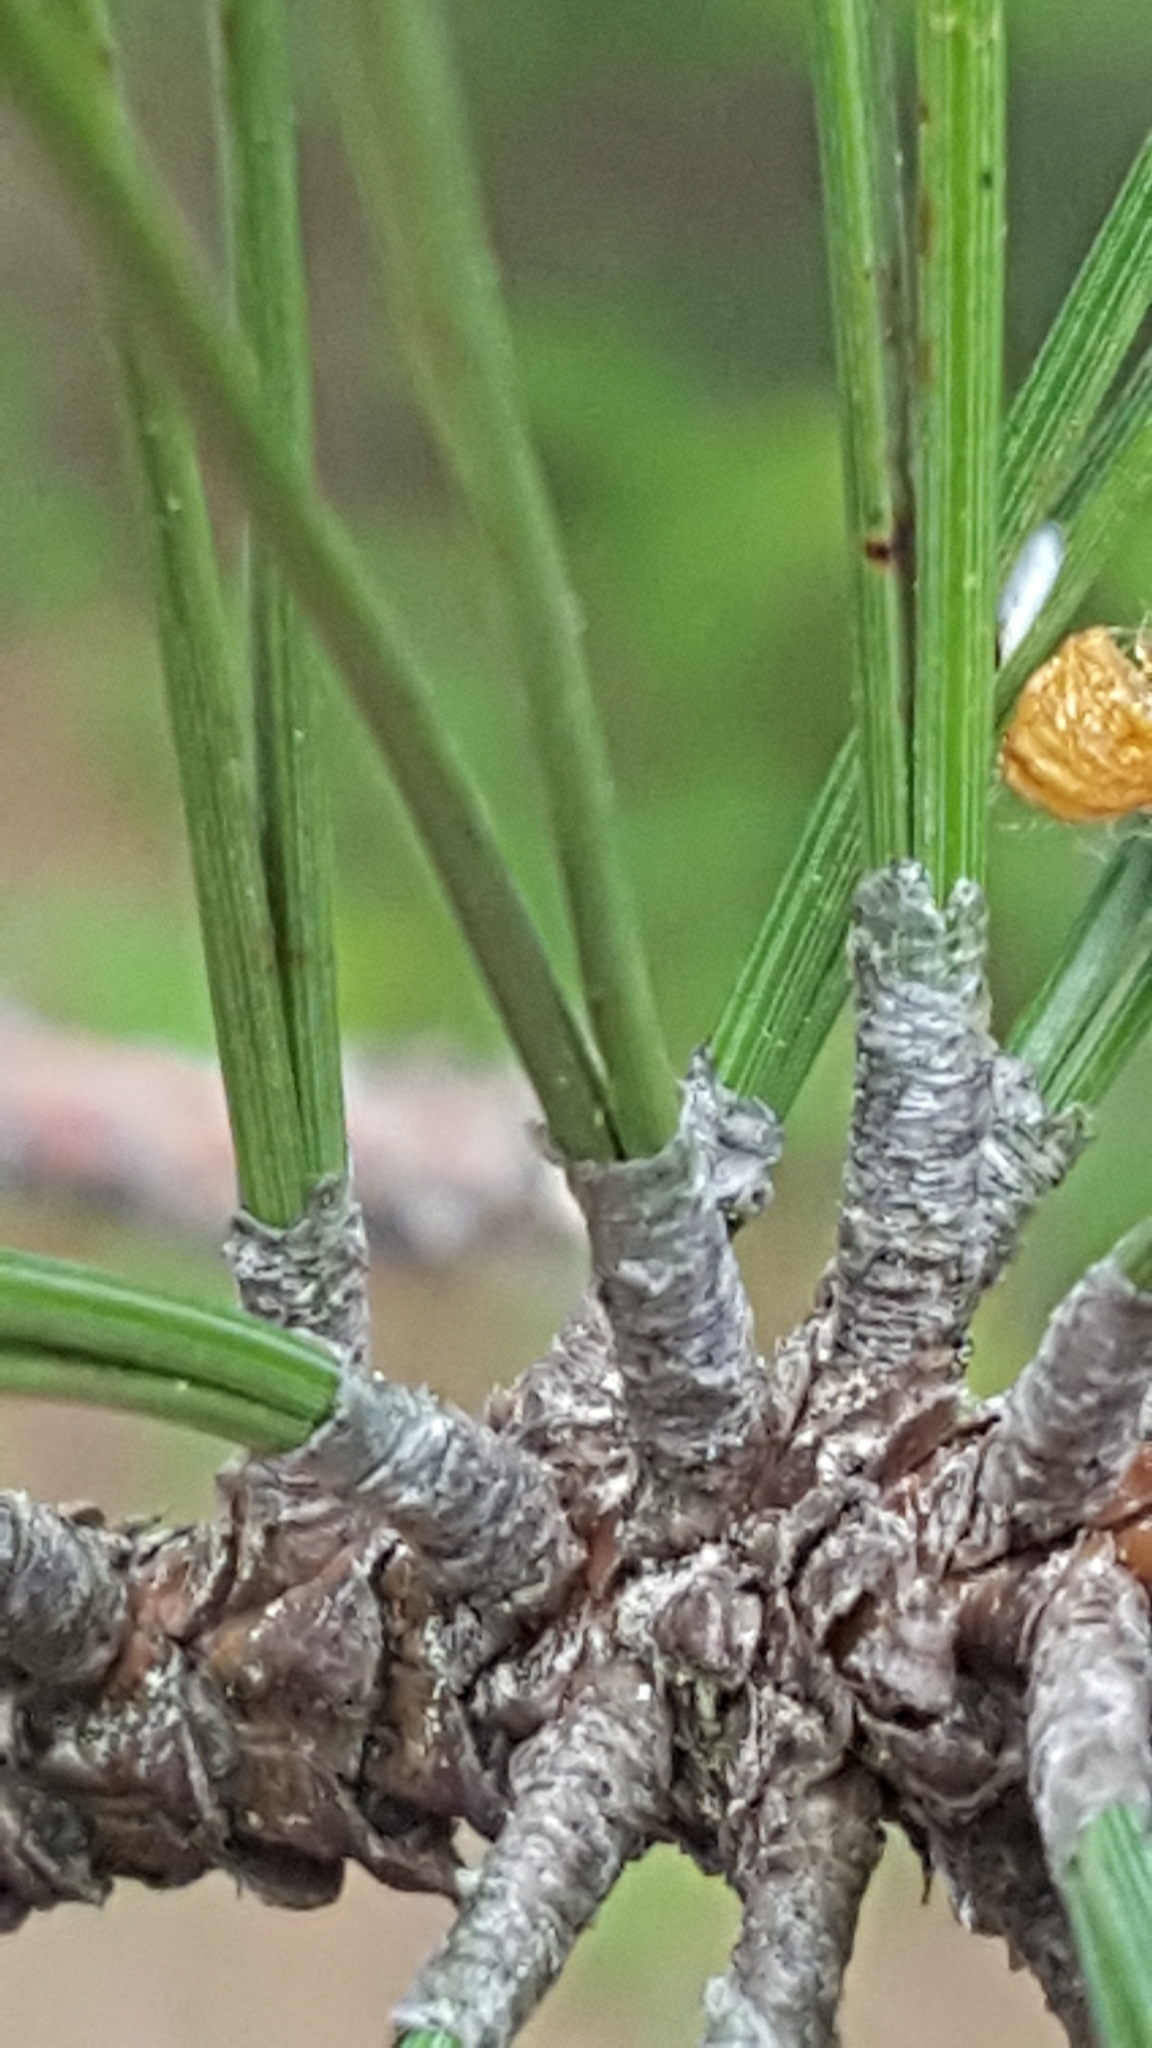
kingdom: Plantae
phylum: Tracheophyta
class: Pinopsida
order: Pinales
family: Pinaceae
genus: Pinus
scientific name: Pinus resinosa
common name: Norway pine
